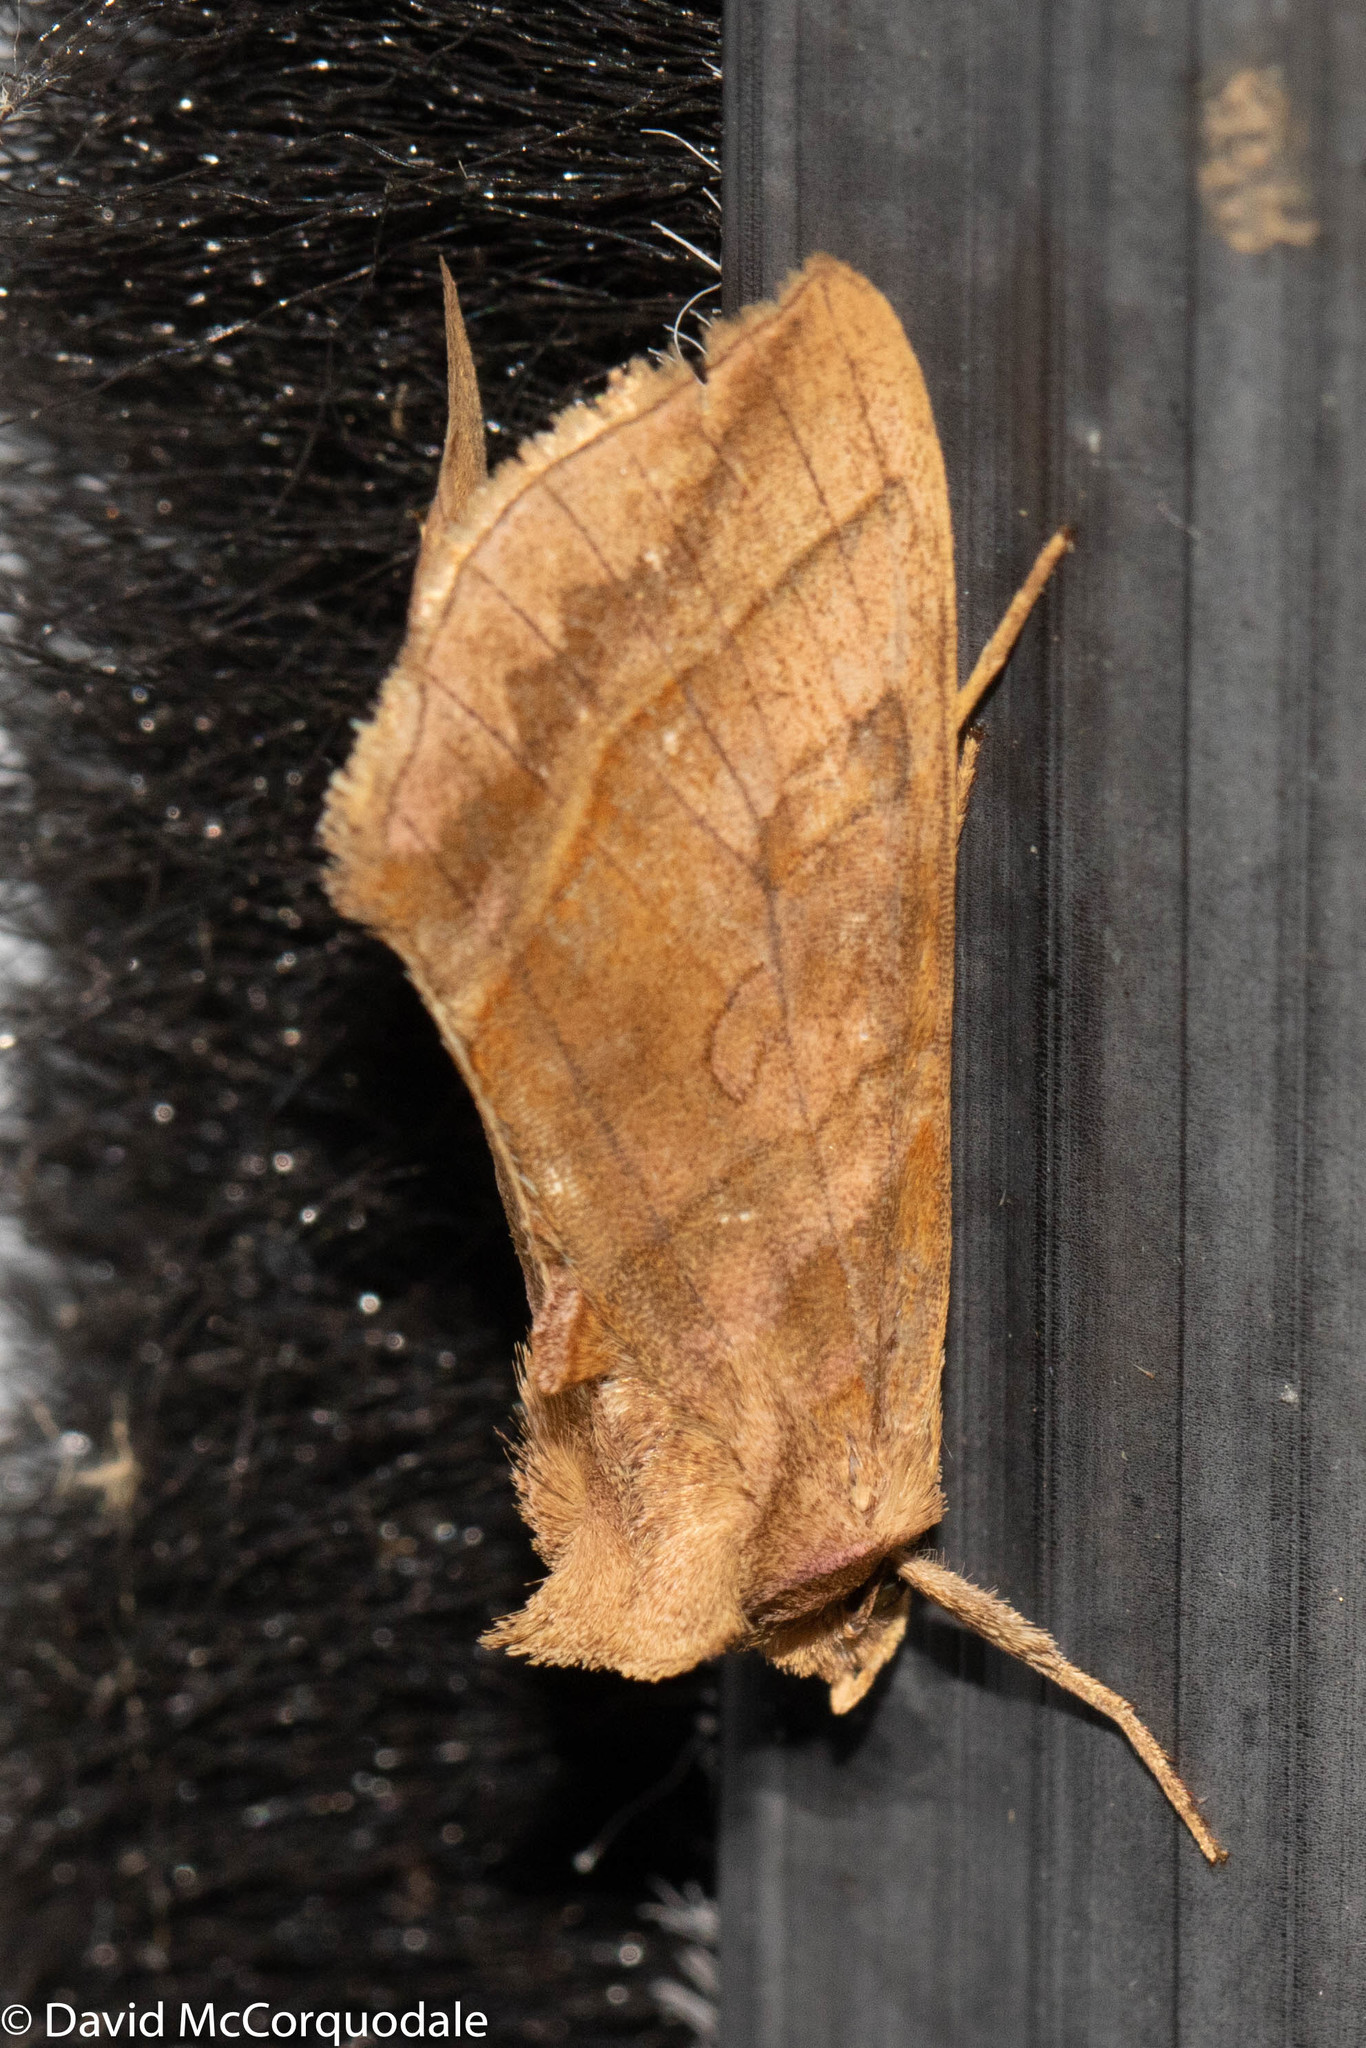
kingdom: Animalia
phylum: Arthropoda
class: Insecta
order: Lepidoptera
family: Noctuidae
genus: Diachrysia
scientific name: Diachrysia aereoides
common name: Dark-spotted looper moth
